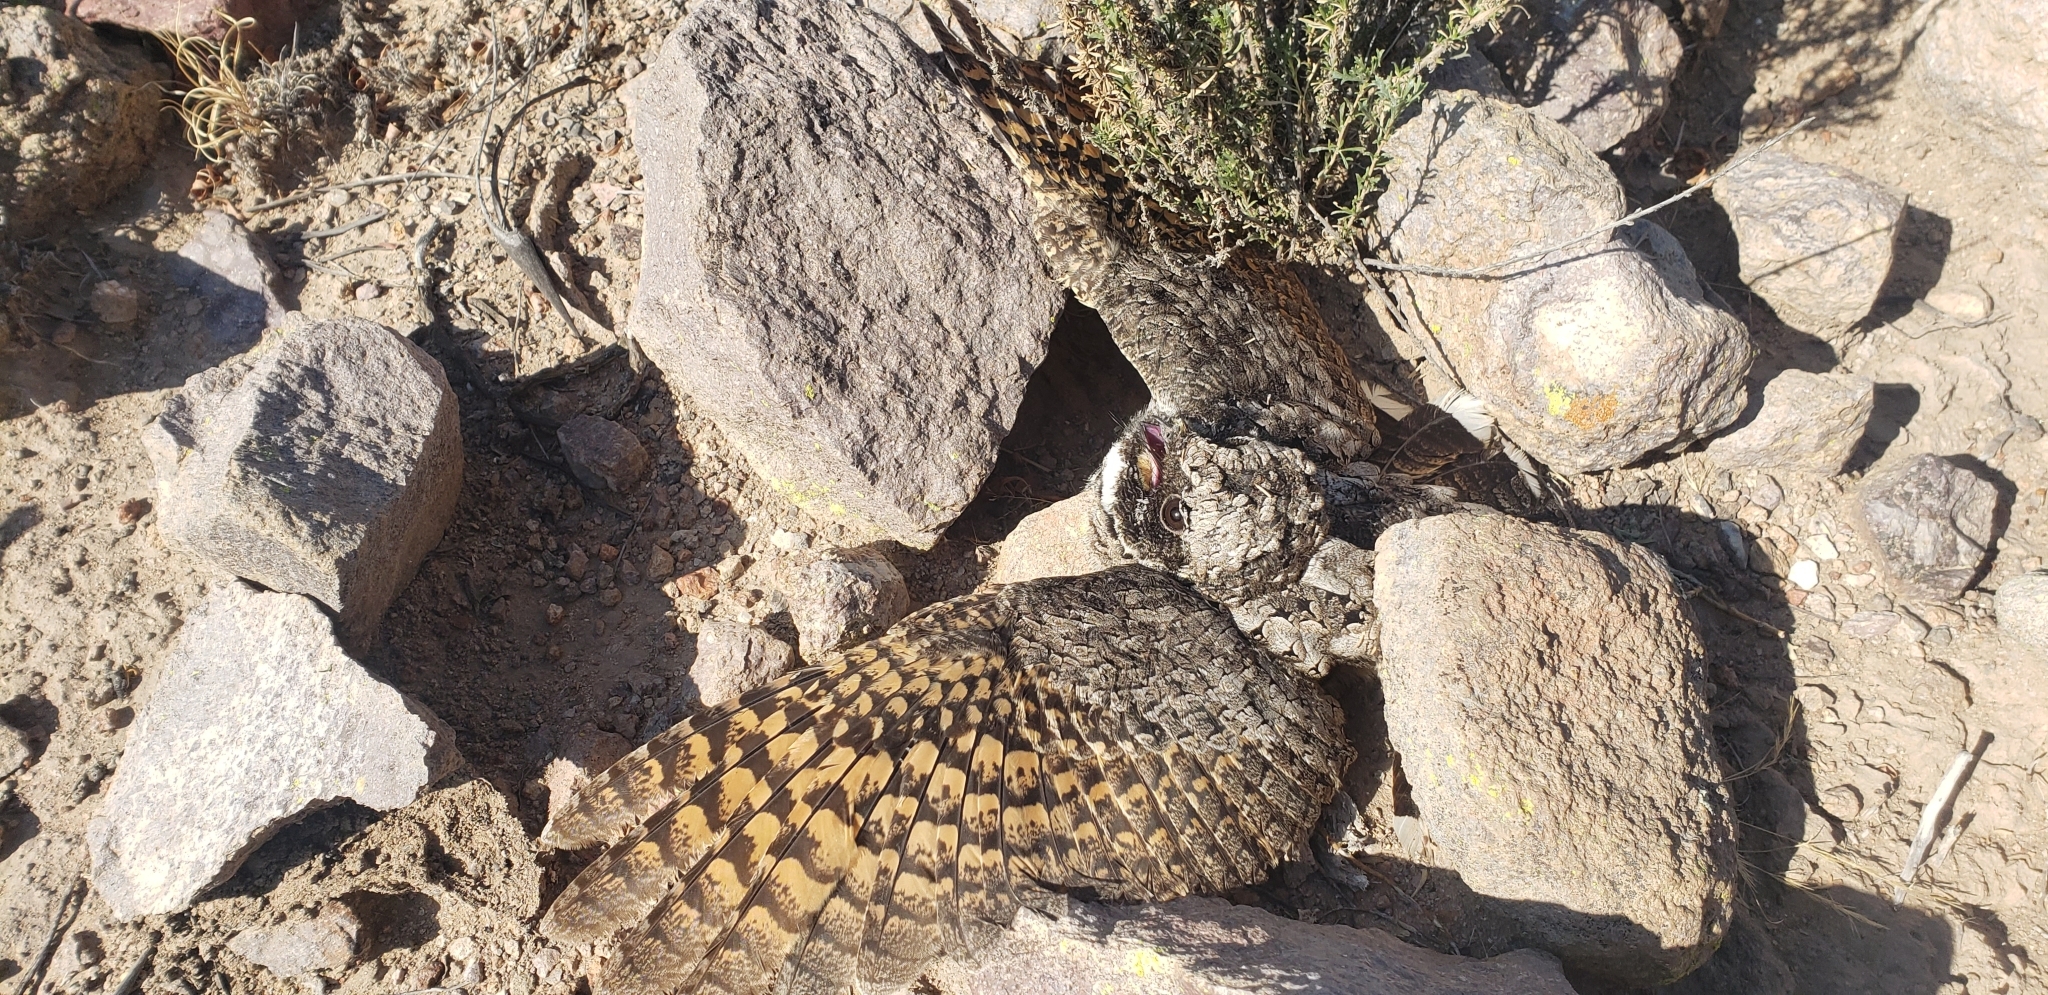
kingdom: Animalia
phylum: Chordata
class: Aves
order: Caprimulgiformes
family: Caprimulgidae
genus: Phalaenoptilus
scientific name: Phalaenoptilus nuttallii
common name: Common poorwill
